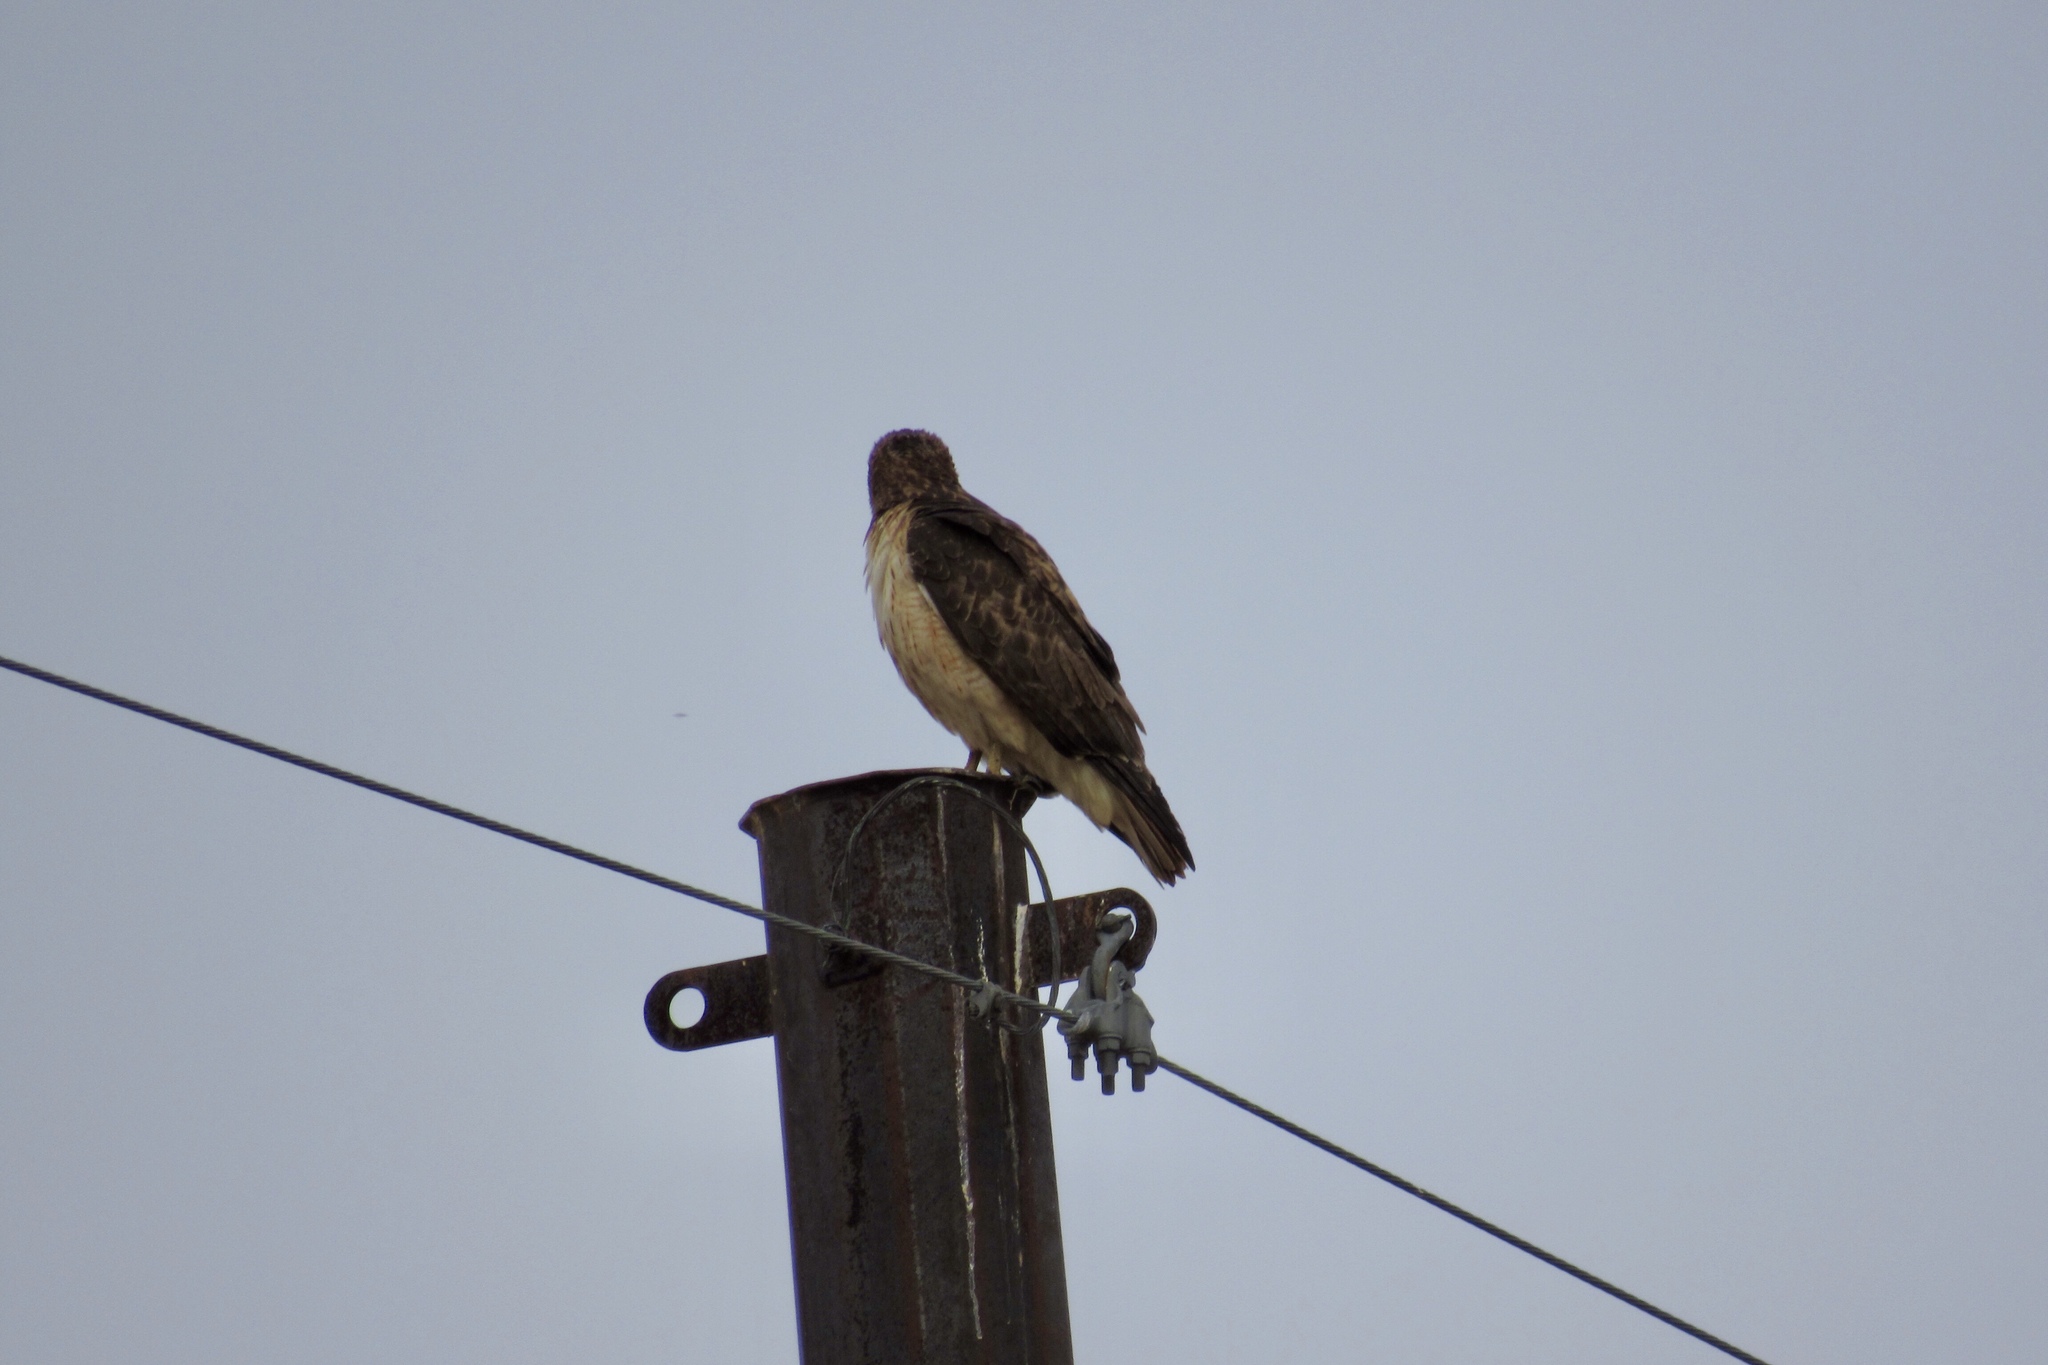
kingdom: Animalia
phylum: Chordata
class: Aves
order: Accipitriformes
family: Accipitridae
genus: Buteo
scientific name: Buteo jamaicensis
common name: Red-tailed hawk
